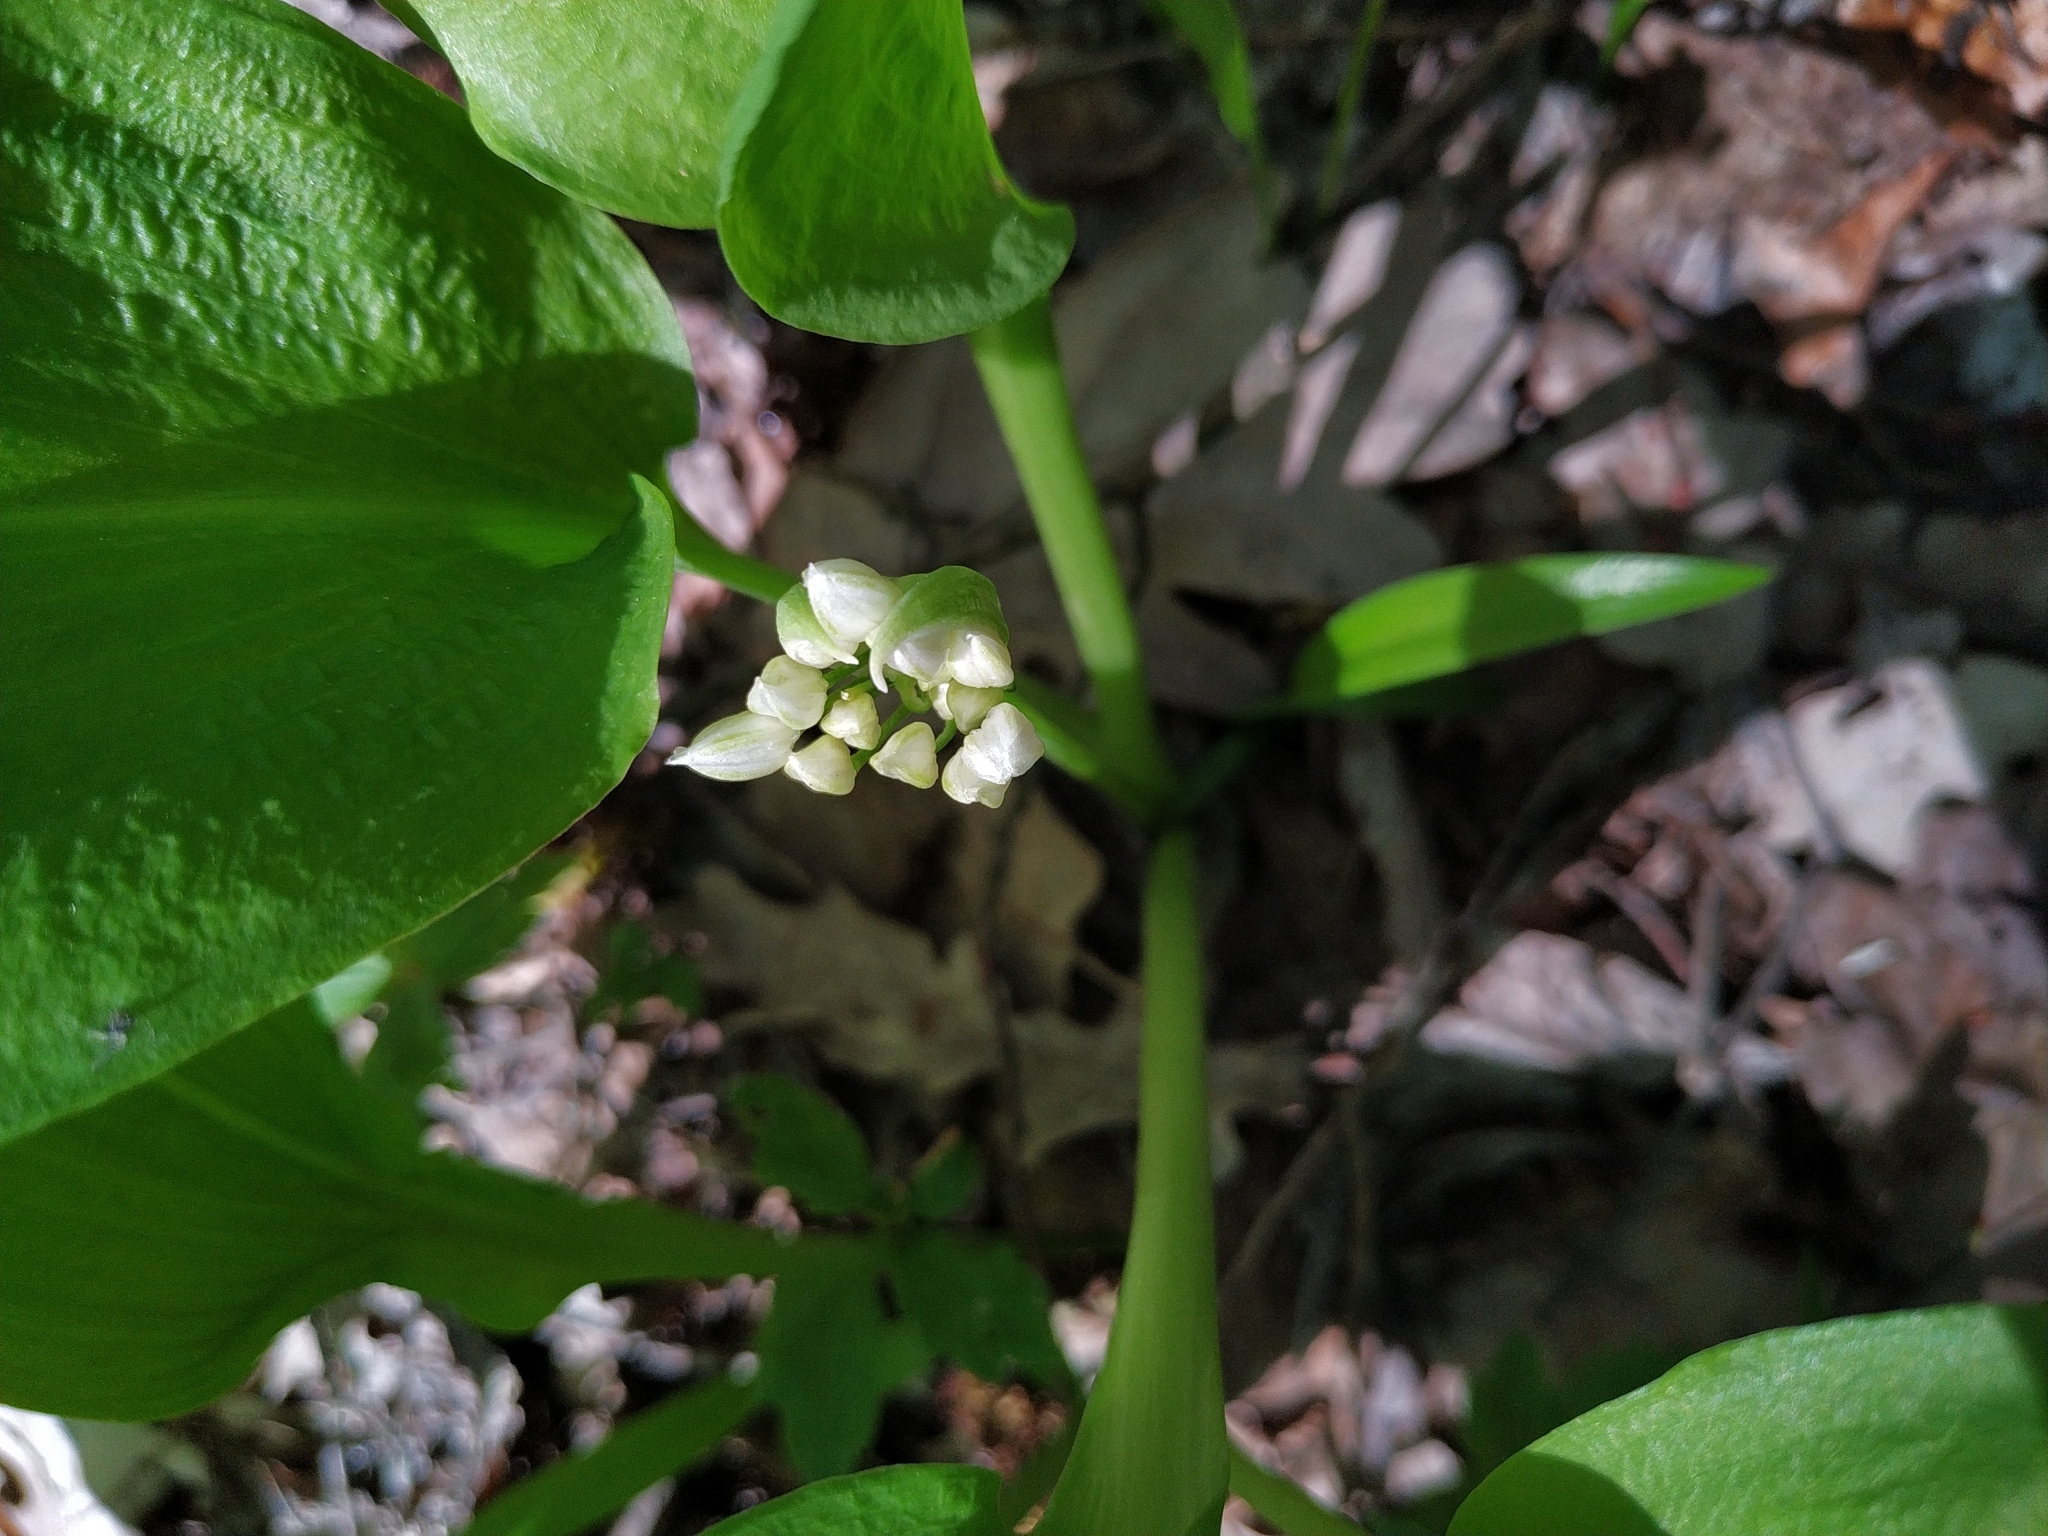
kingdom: Plantae
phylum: Tracheophyta
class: Liliopsida
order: Asparagales
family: Amaryllidaceae
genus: Allium
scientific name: Allium ursinum
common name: Ramsons
